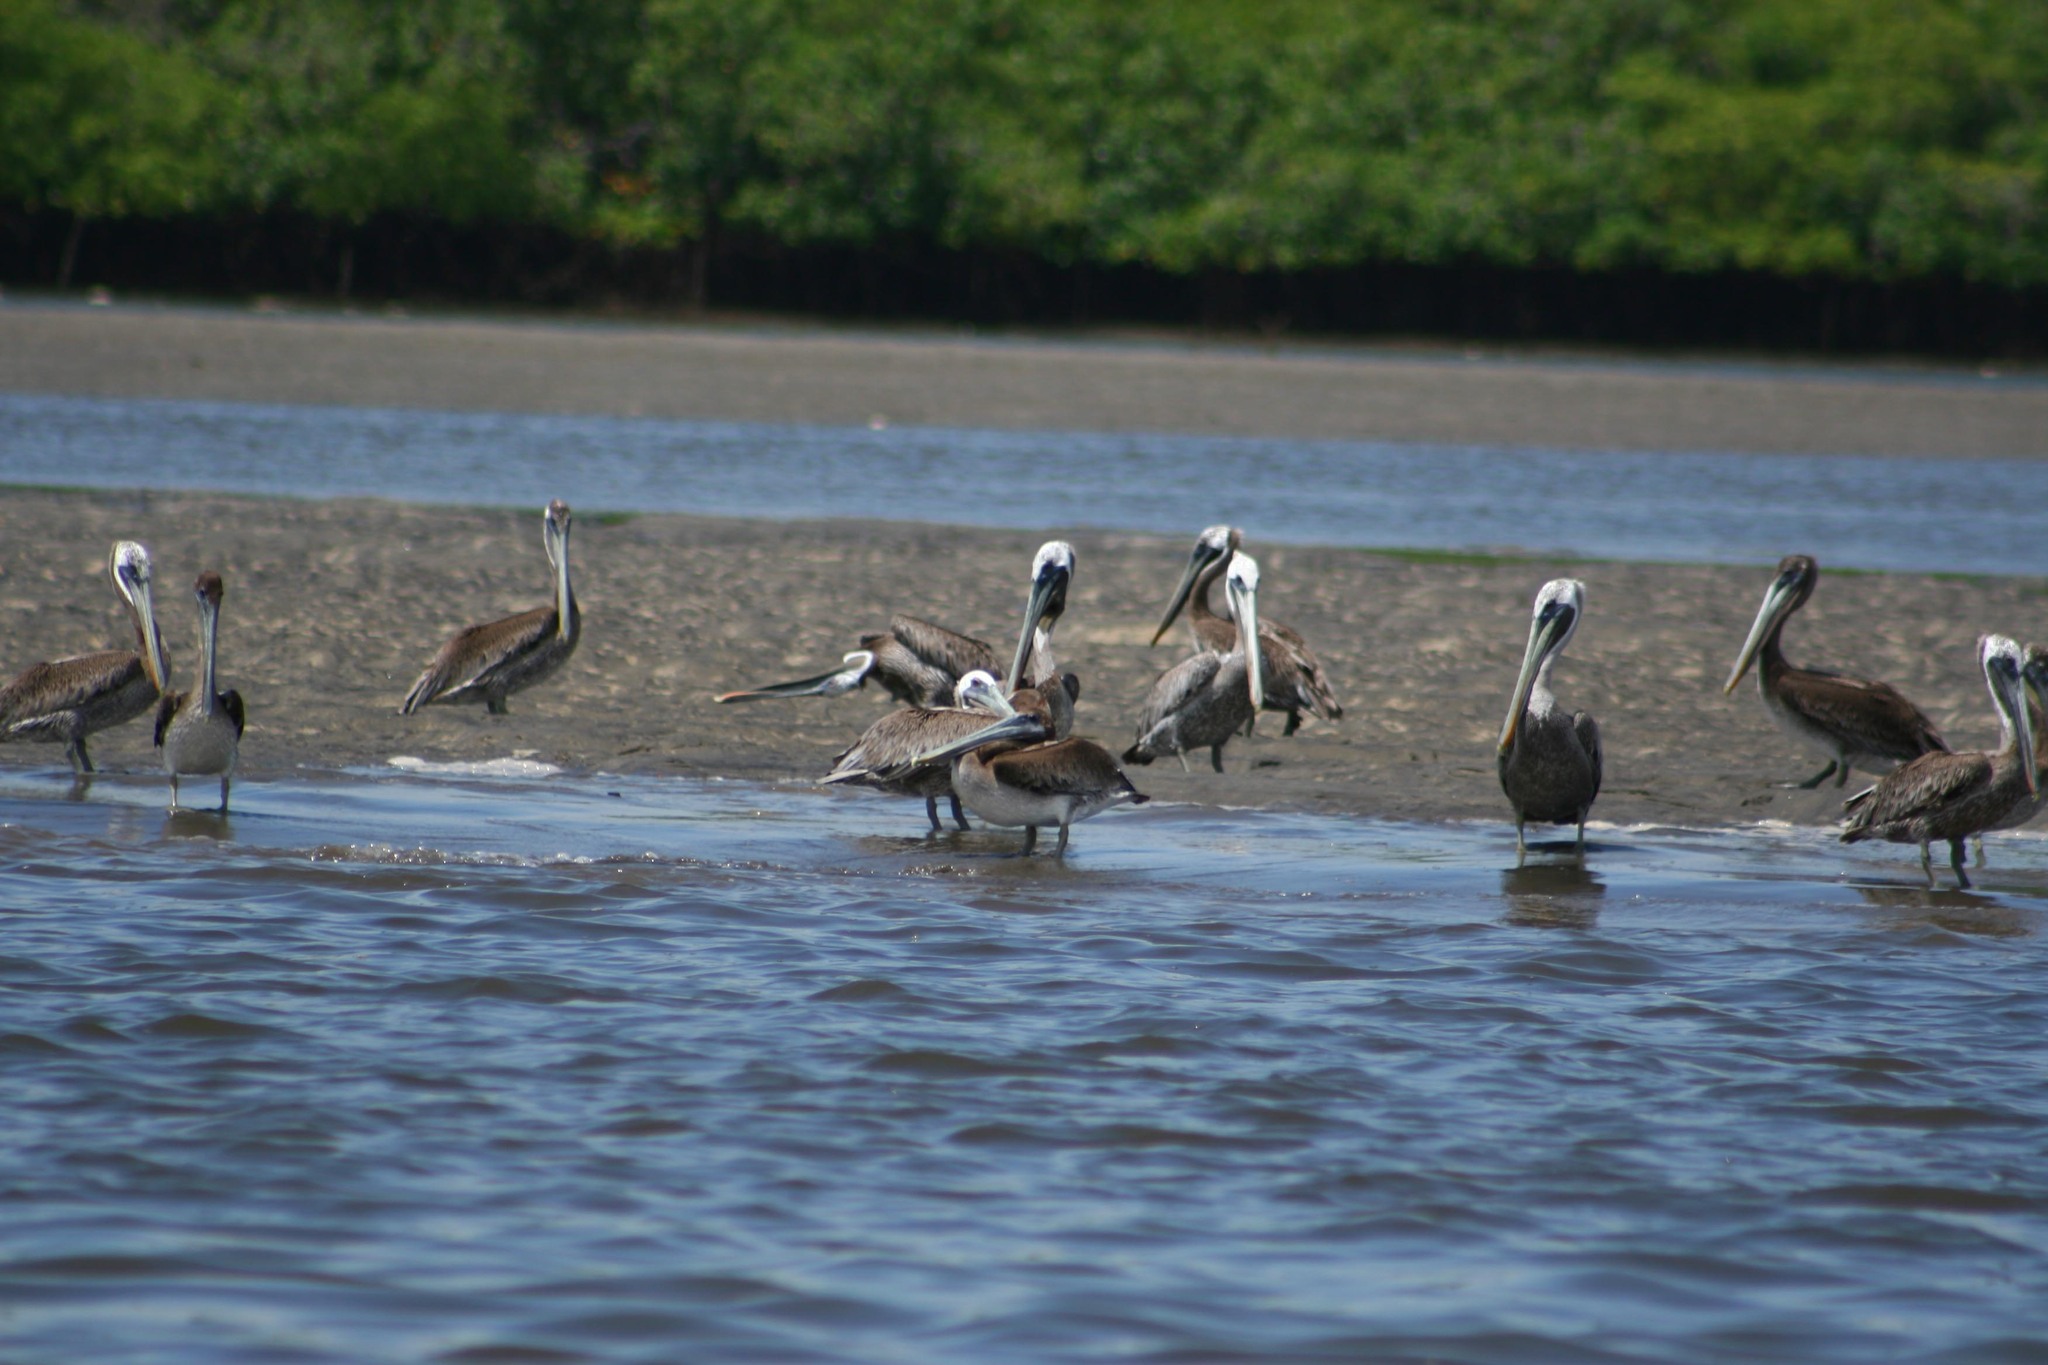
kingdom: Animalia
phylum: Chordata
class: Aves
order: Pelecaniformes
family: Pelecanidae
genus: Pelecanus
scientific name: Pelecanus occidentalis
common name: Brown pelican
